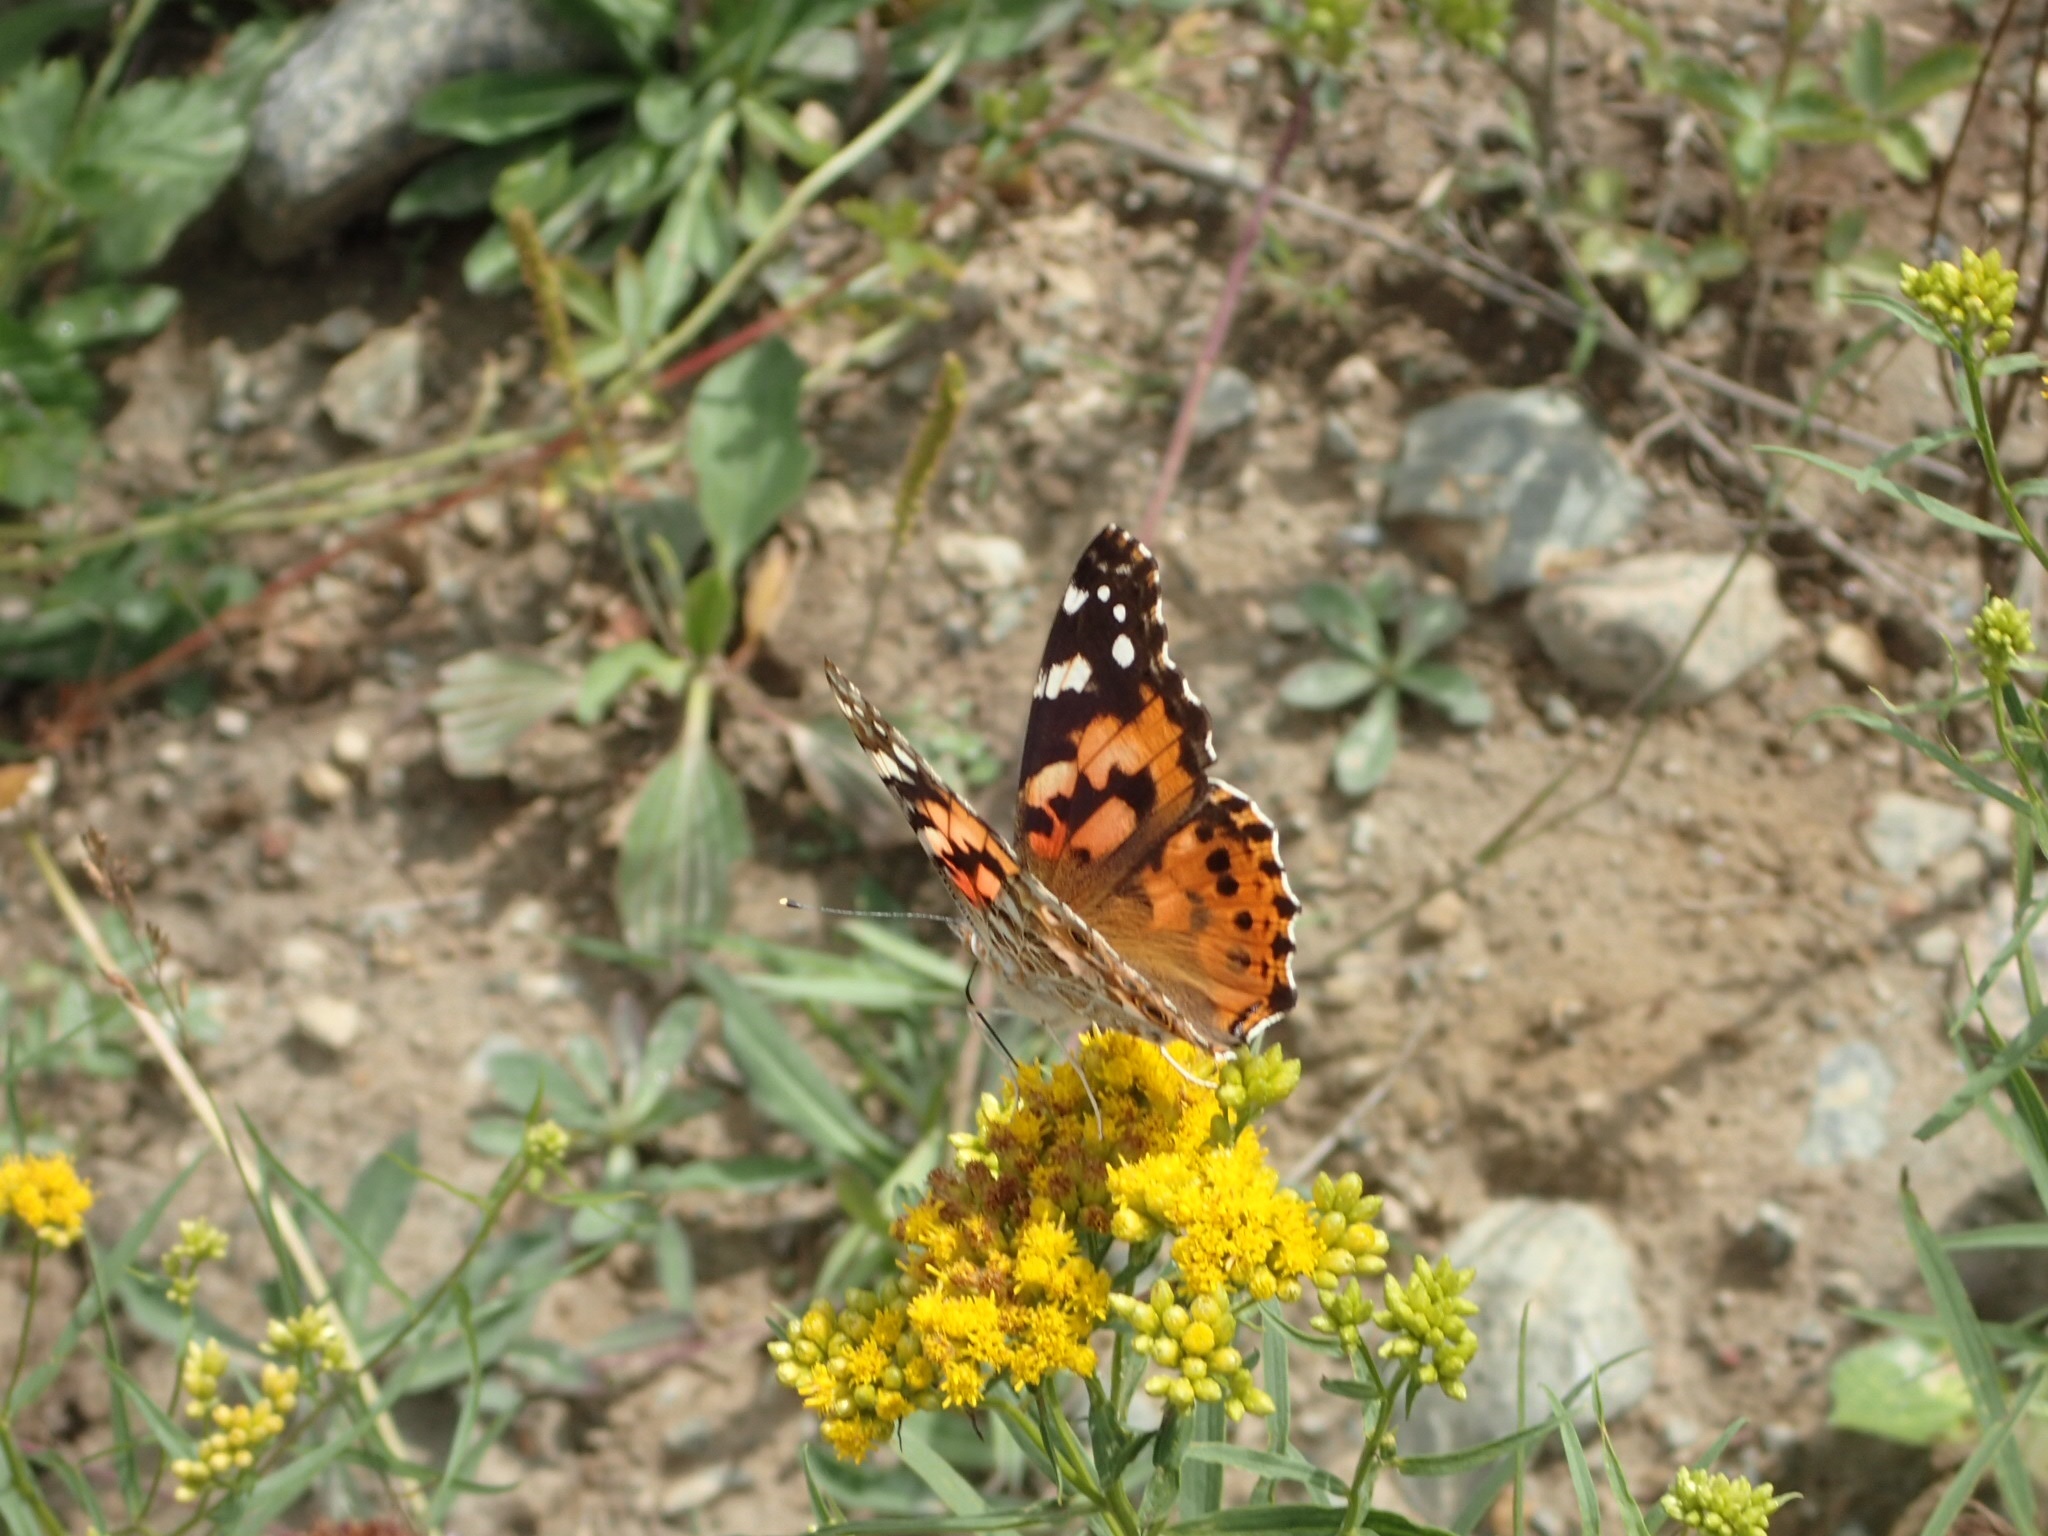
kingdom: Animalia
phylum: Arthropoda
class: Insecta
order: Lepidoptera
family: Nymphalidae
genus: Vanessa
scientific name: Vanessa cardui
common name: Painted lady
